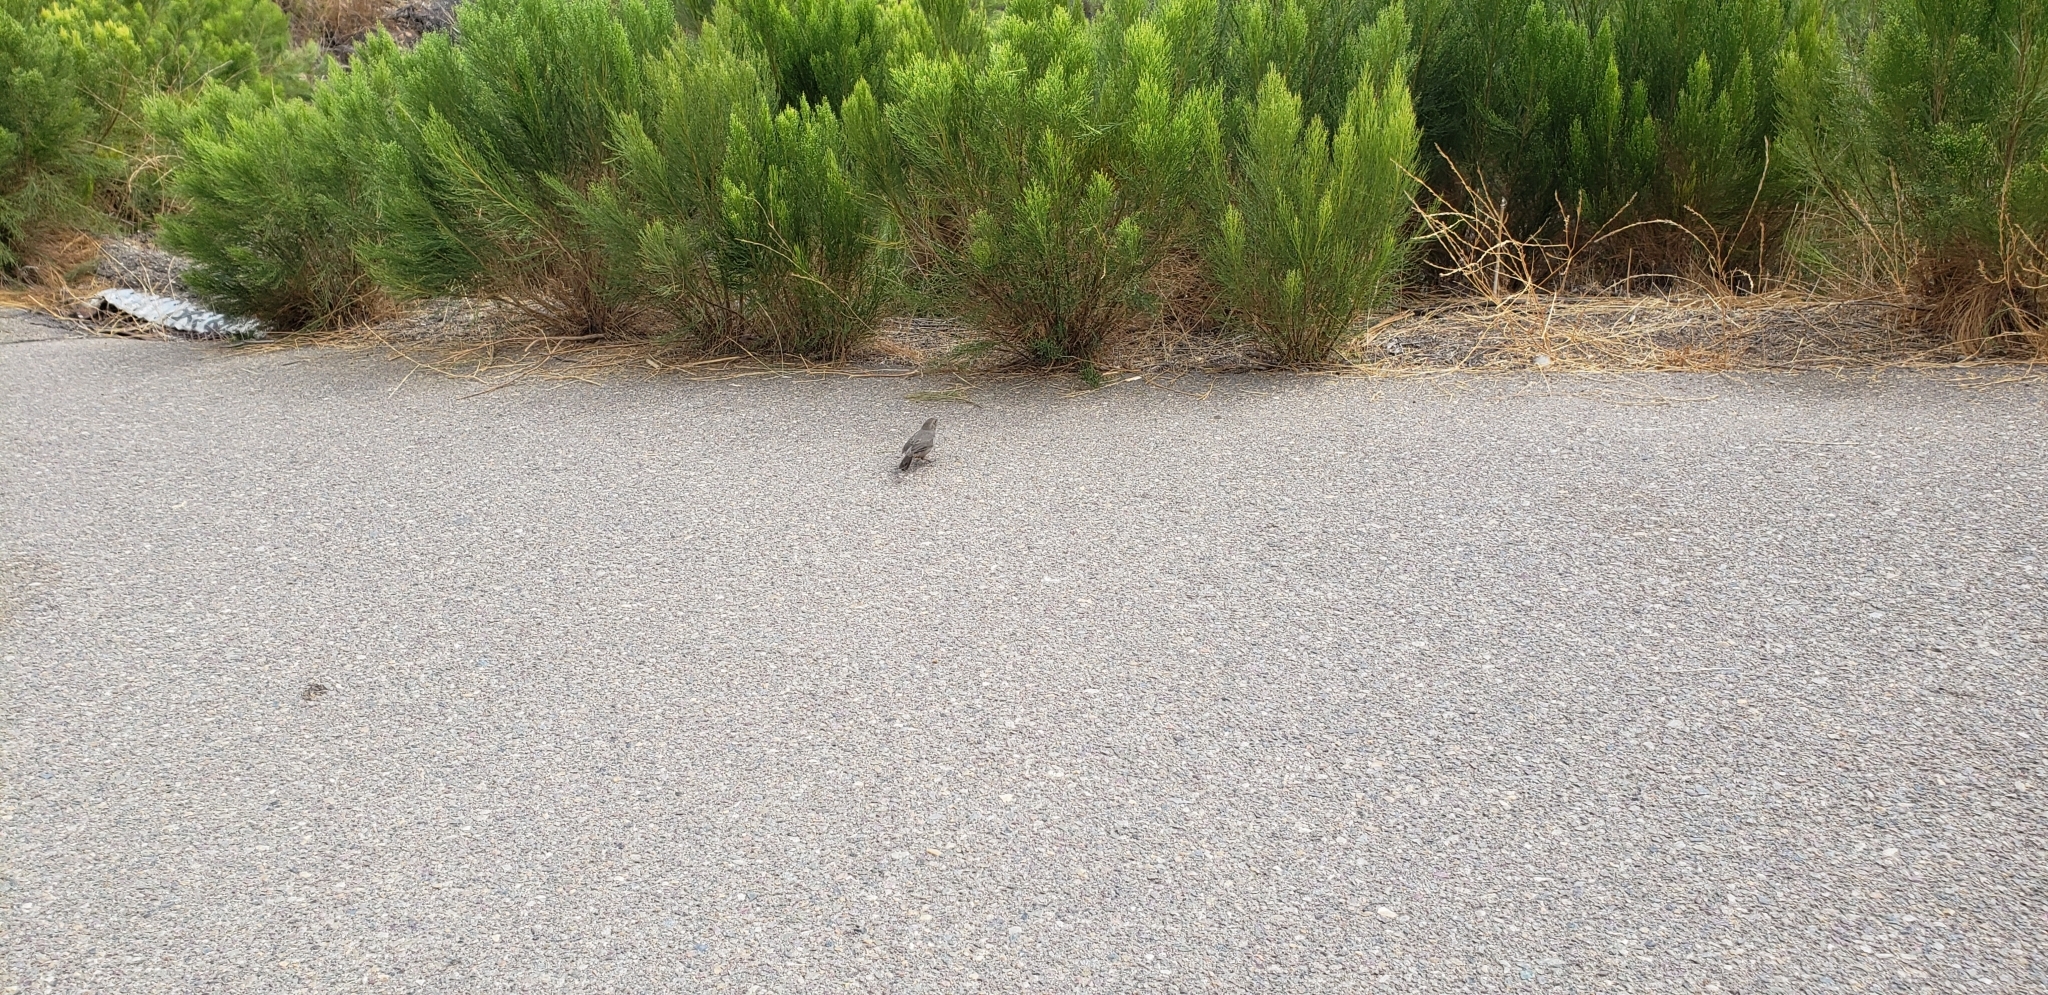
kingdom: Animalia
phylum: Chordata
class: Aves
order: Passeriformes
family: Passerellidae
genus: Melozone
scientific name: Melozone crissalis
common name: California towhee
